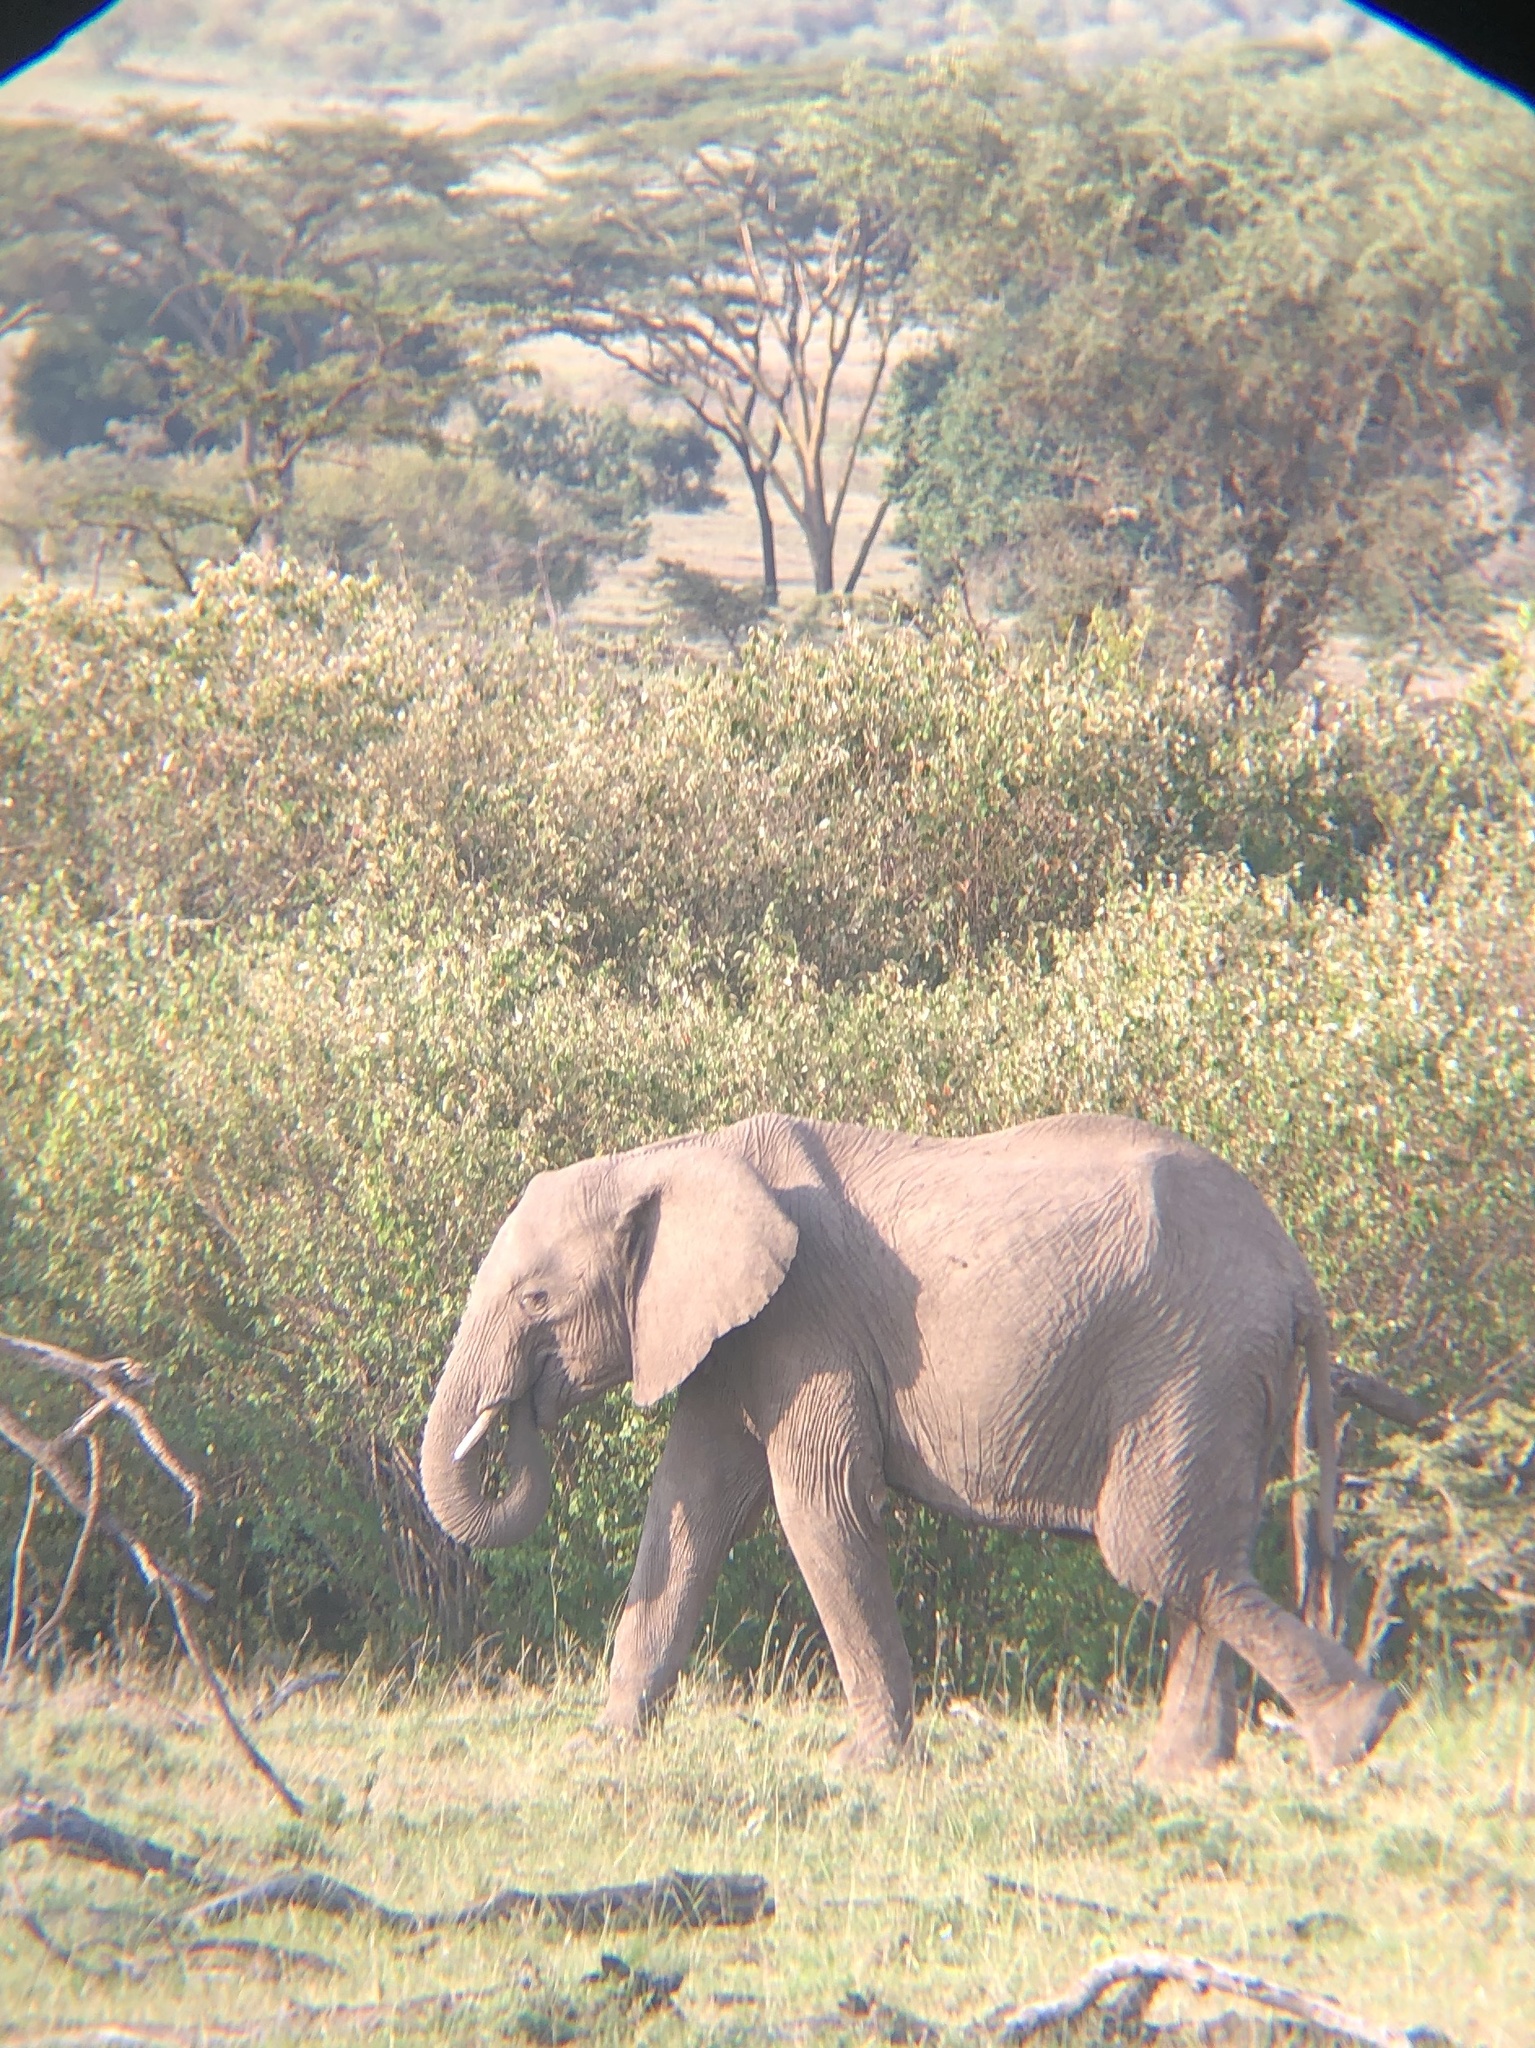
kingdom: Animalia
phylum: Chordata
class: Mammalia
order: Proboscidea
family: Elephantidae
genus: Loxodonta
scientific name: Loxodonta africana
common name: African elephant
